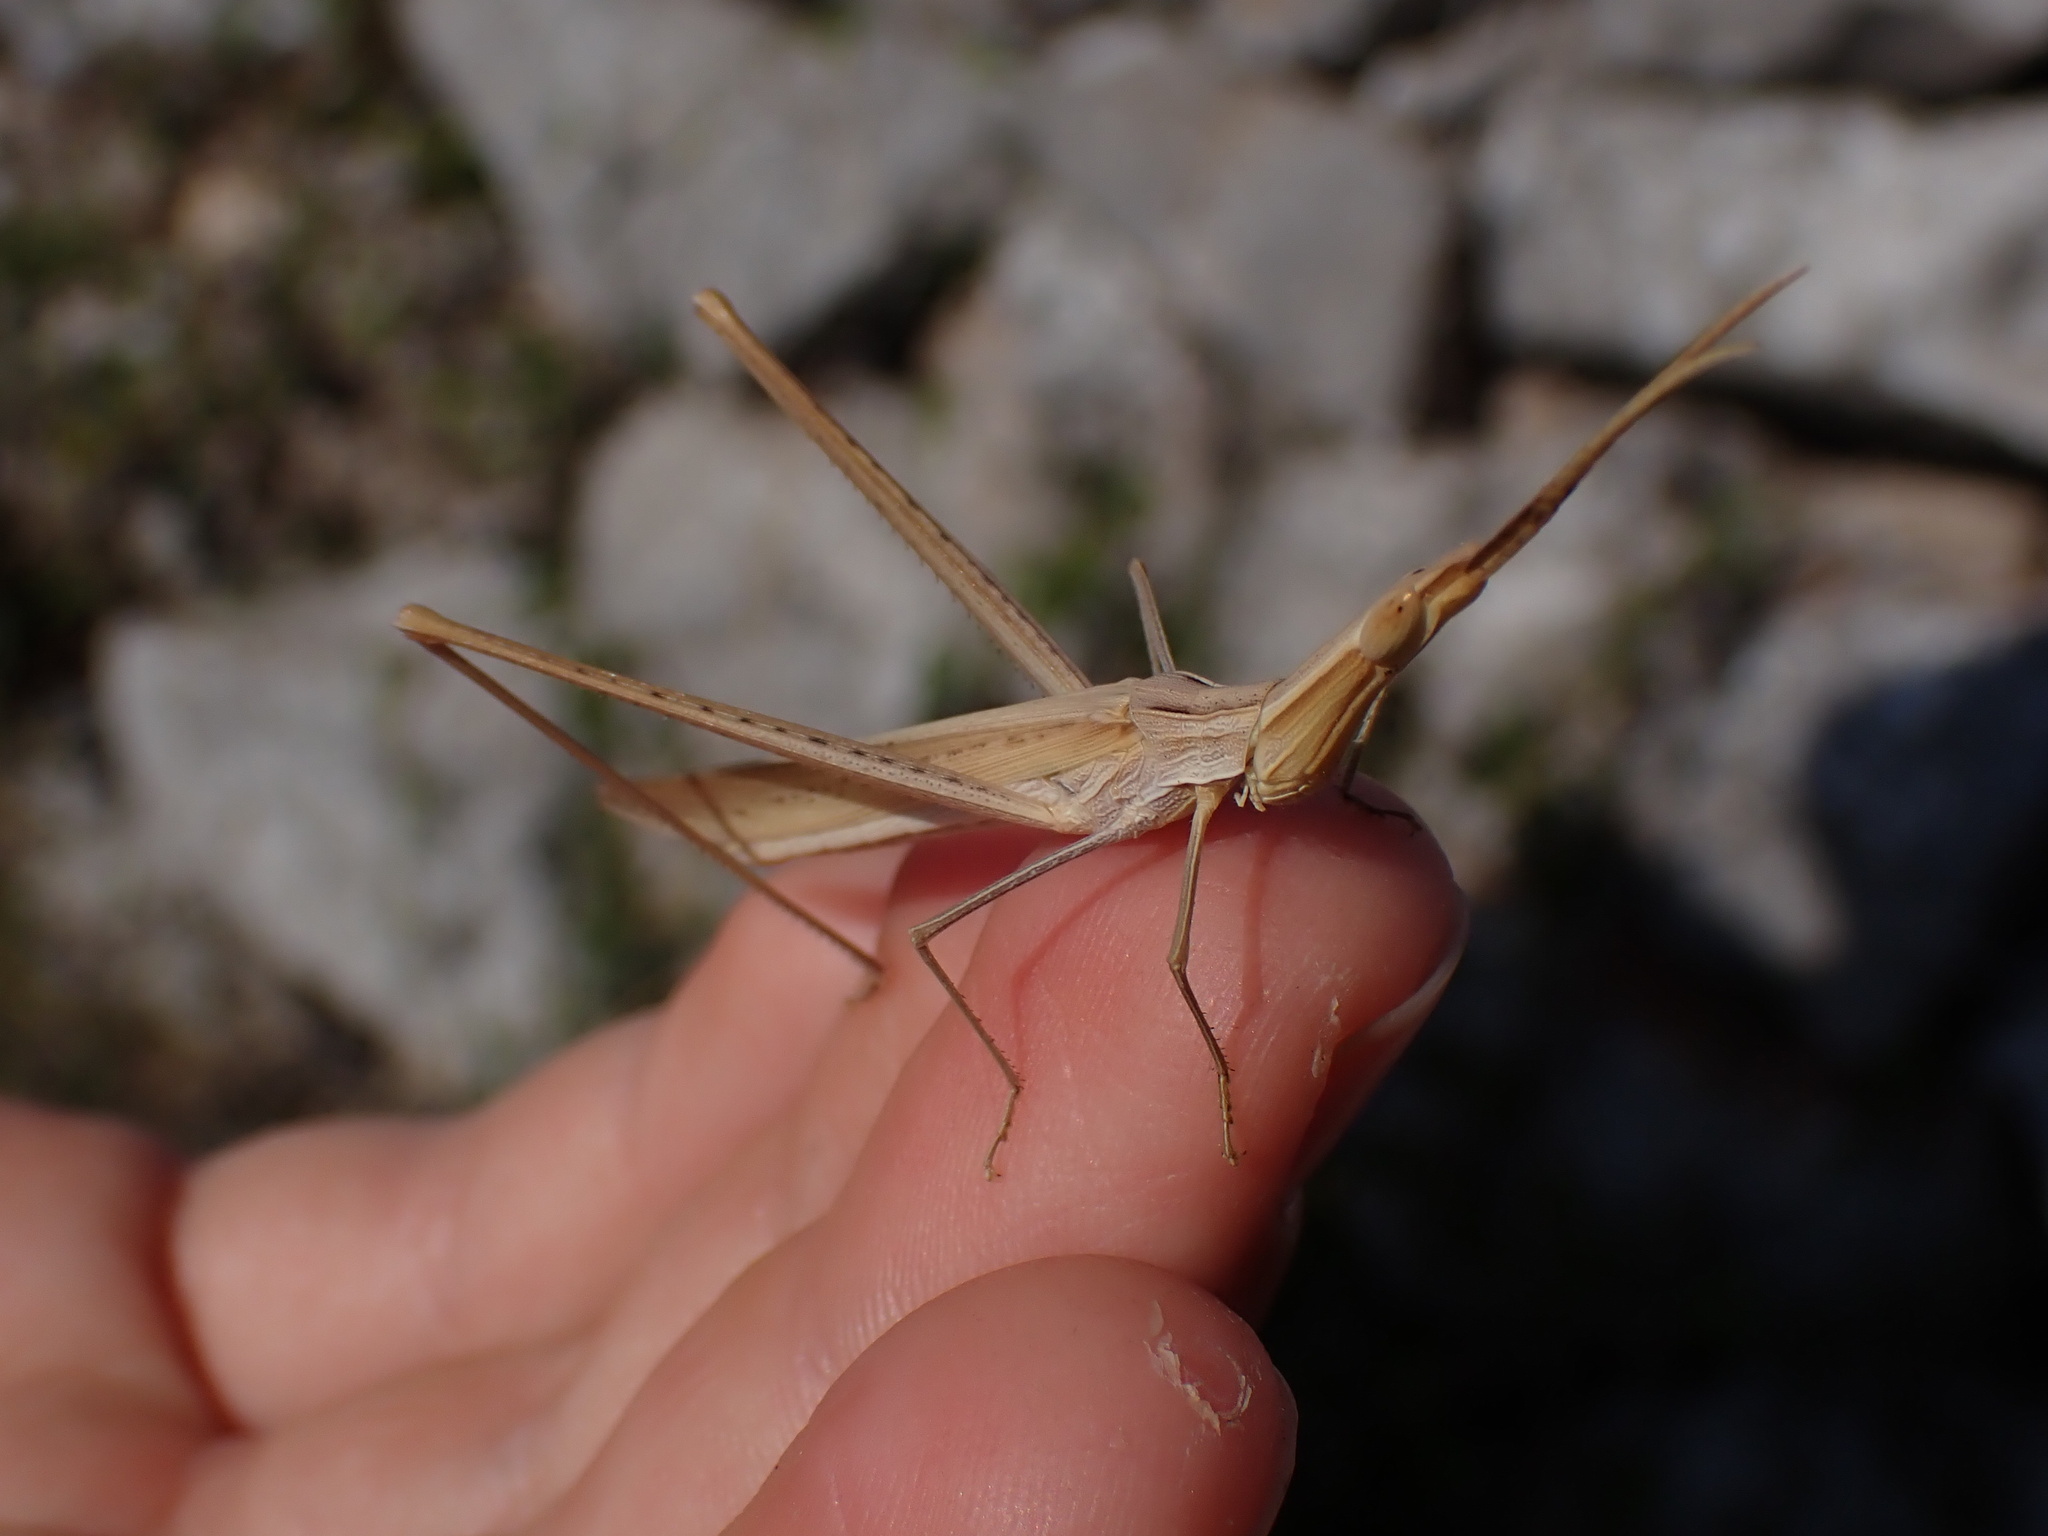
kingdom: Animalia
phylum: Arthropoda
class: Insecta
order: Orthoptera
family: Acrididae
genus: Acrida
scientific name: Acrida ungarica
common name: Common cone-headed grasshopper
